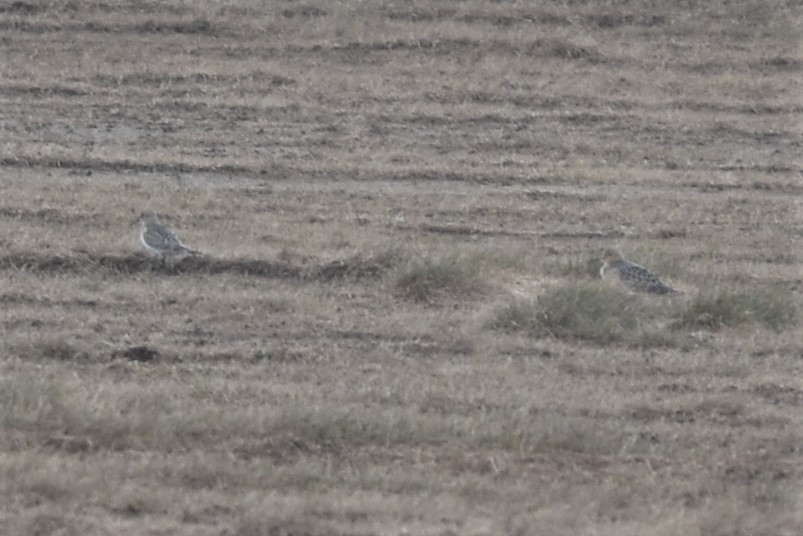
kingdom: Animalia
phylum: Chordata
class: Aves
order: Charadriiformes
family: Scolopacidae
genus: Calidris
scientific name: Calidris subruficollis
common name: Buff-breasted sandpiper
